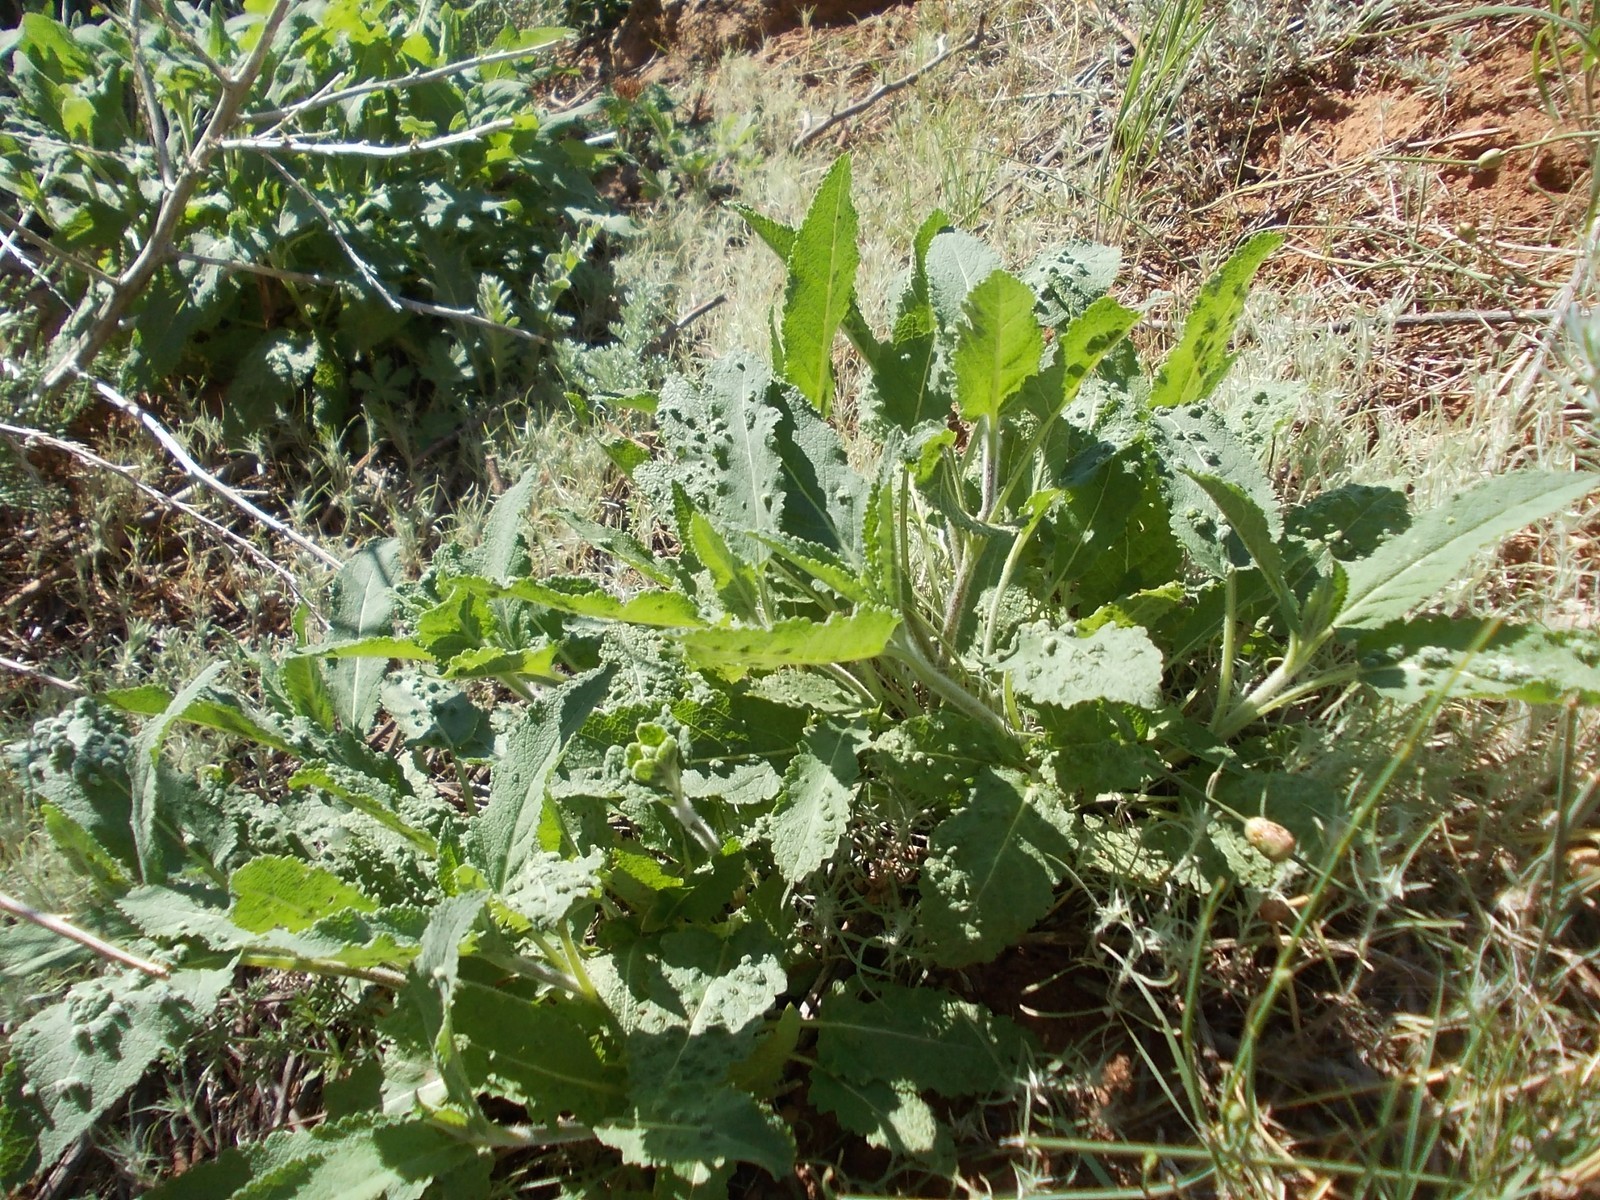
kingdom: Plantae
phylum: Tracheophyta
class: Magnoliopsida
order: Lamiales
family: Lamiaceae
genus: Salvia
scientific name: Salvia nemorosa
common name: Balkan clary
